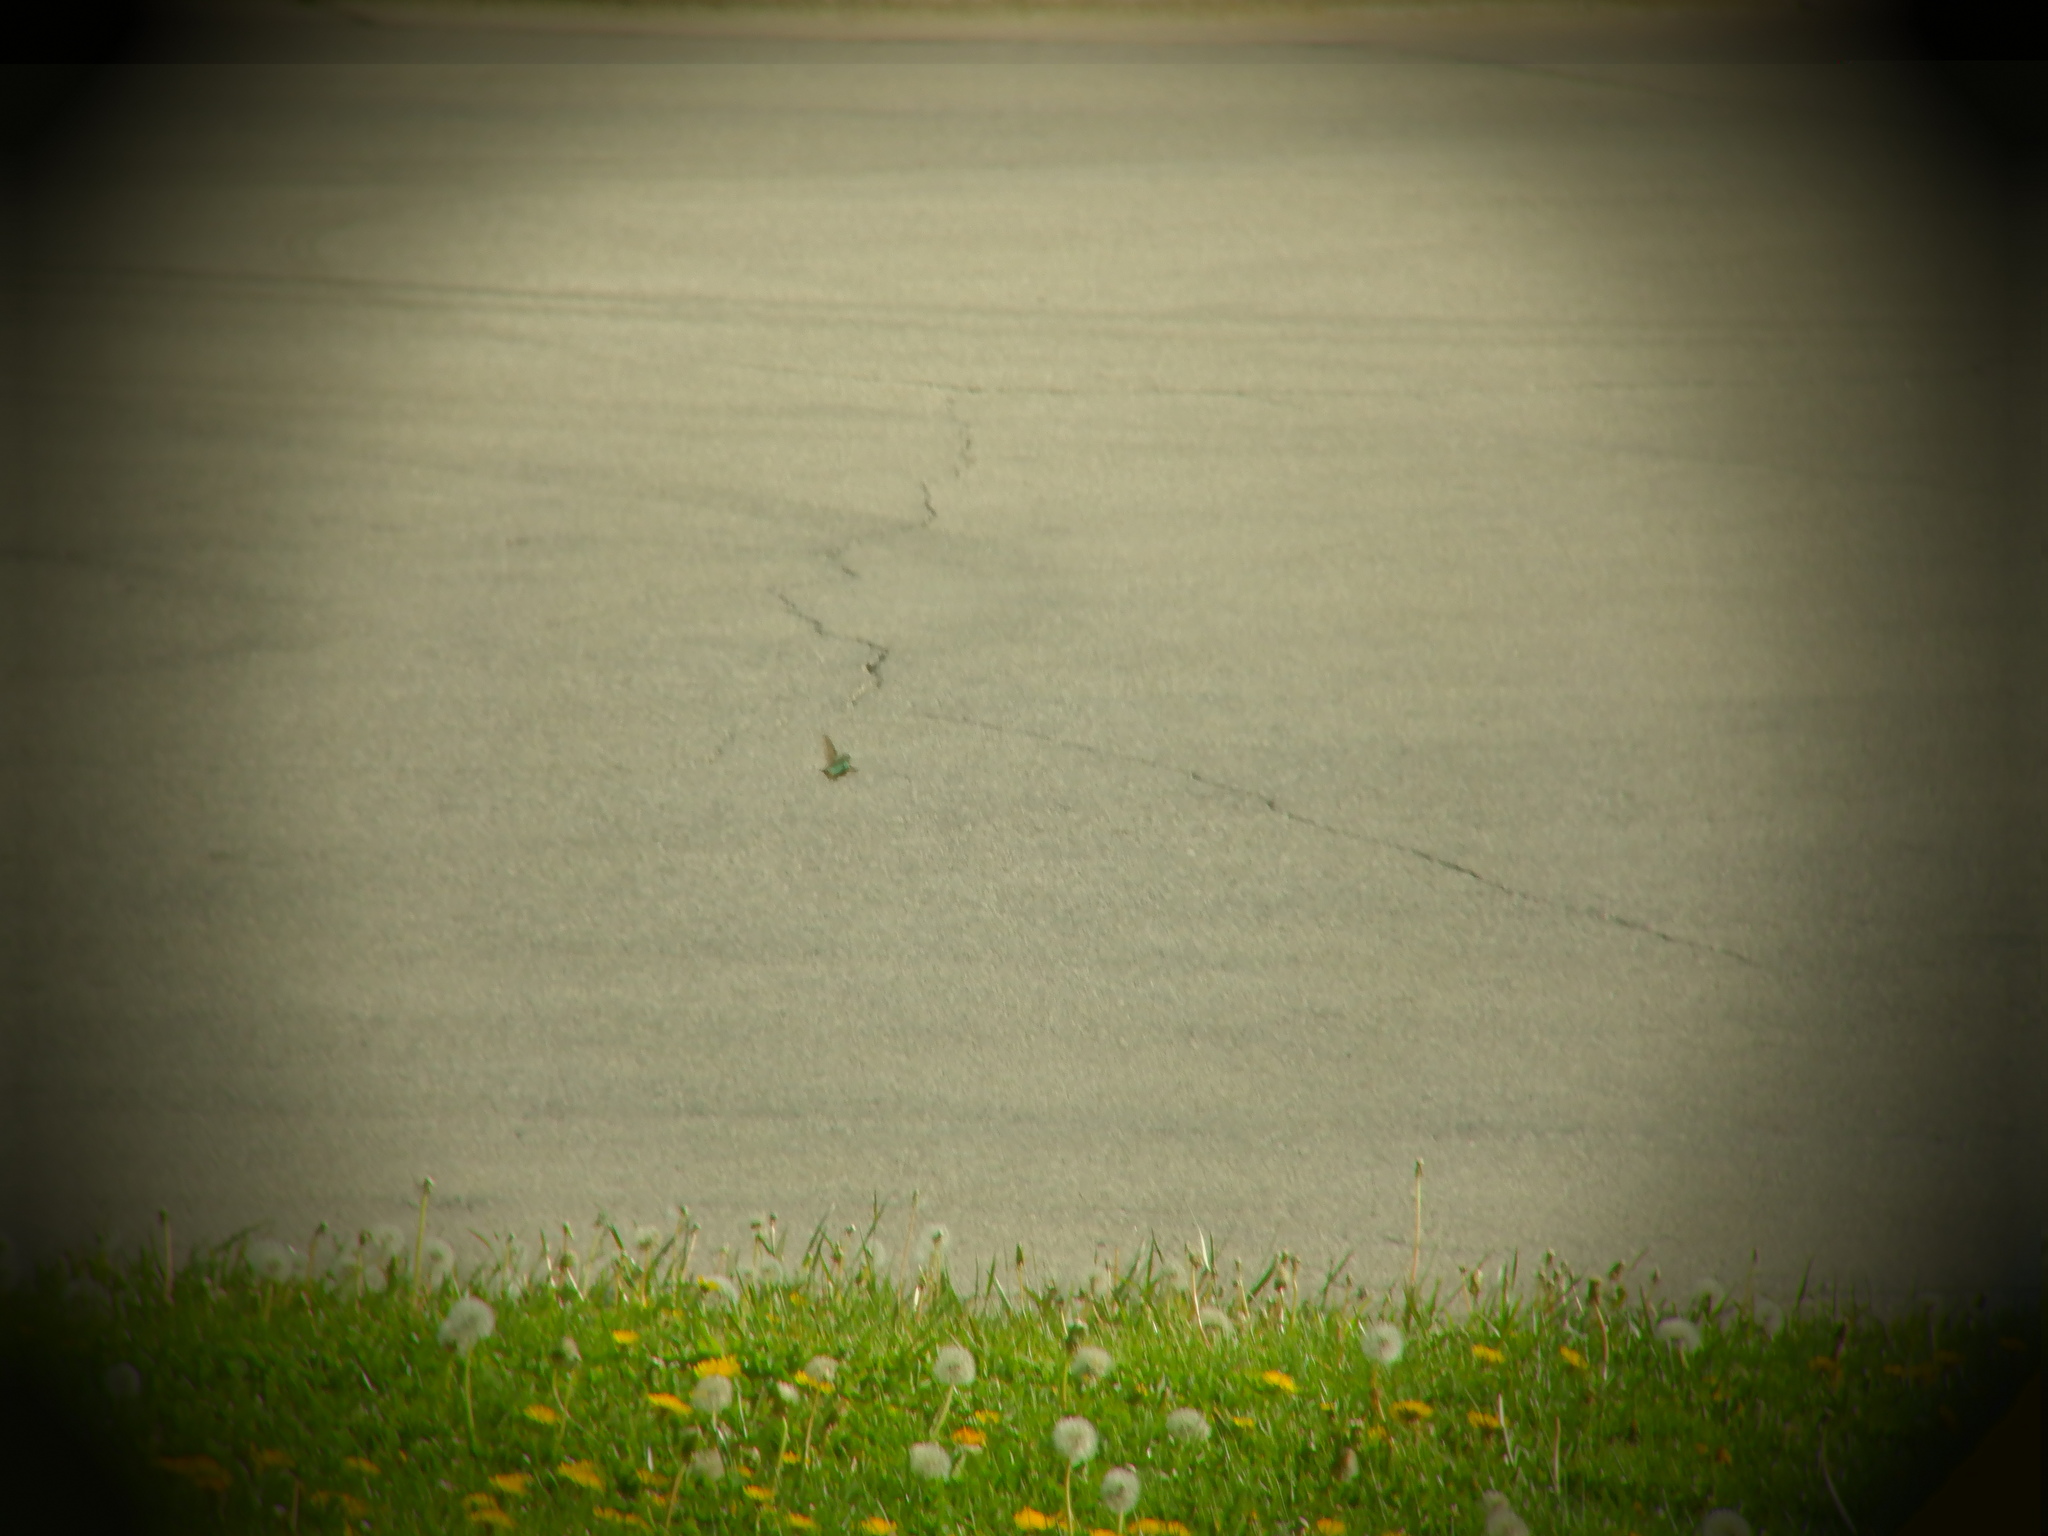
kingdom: Animalia
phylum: Chordata
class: Aves
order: Apodiformes
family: Trochilidae
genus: Archilochus
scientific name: Archilochus colubris
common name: Ruby-throated hummingbird
